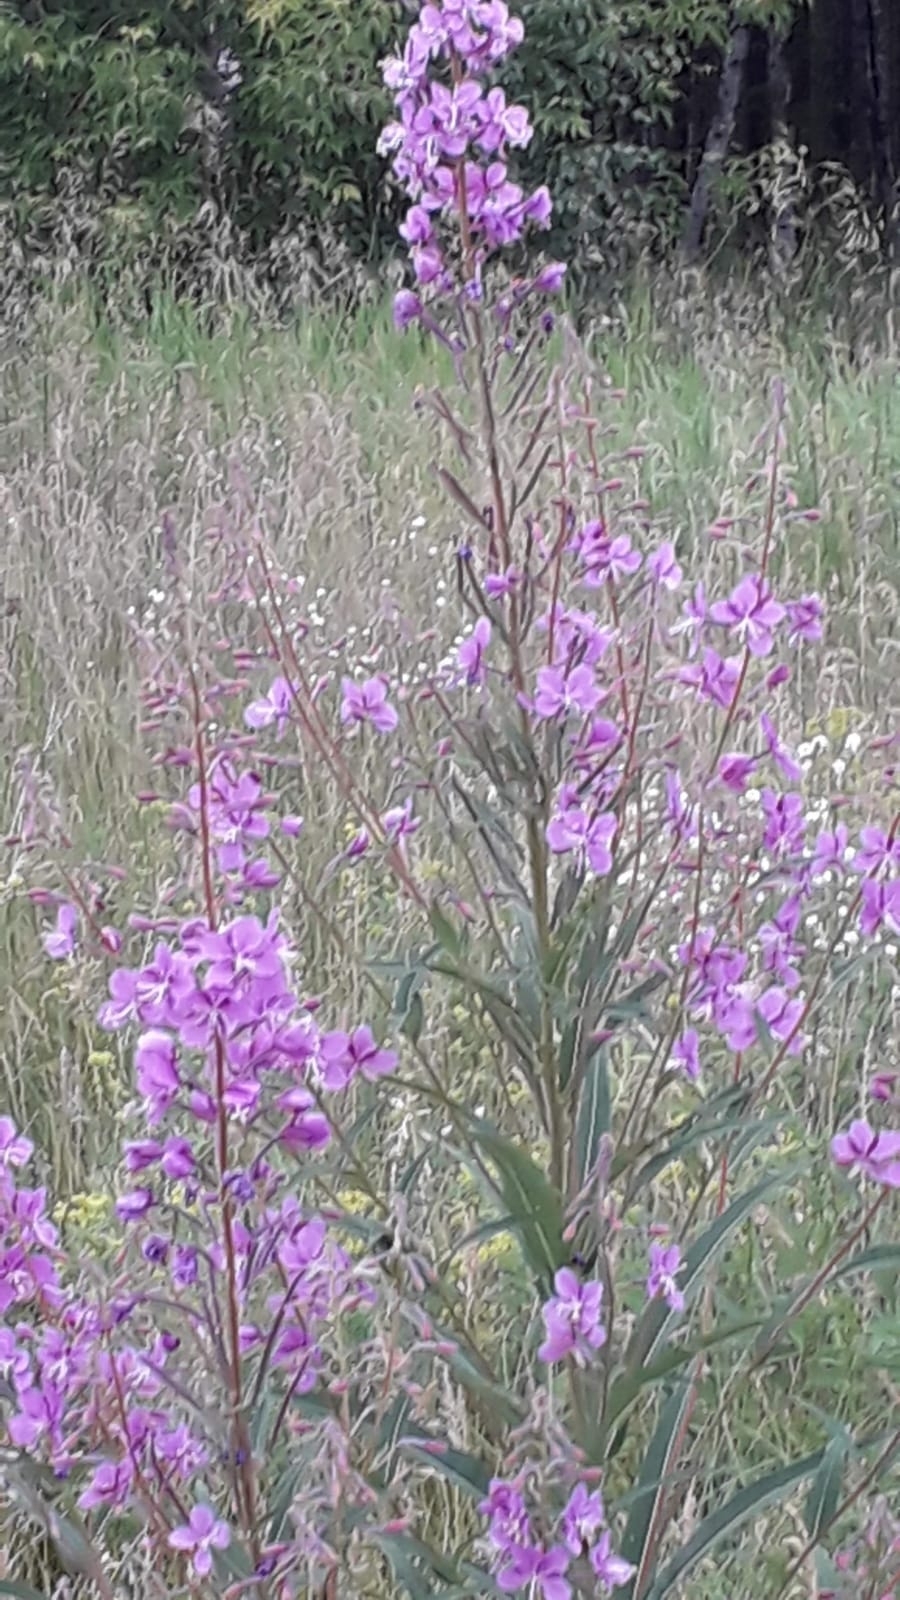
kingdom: Plantae
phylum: Tracheophyta
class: Magnoliopsida
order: Myrtales
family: Onagraceae
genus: Chamaenerion
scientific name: Chamaenerion angustifolium
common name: Fireweed
